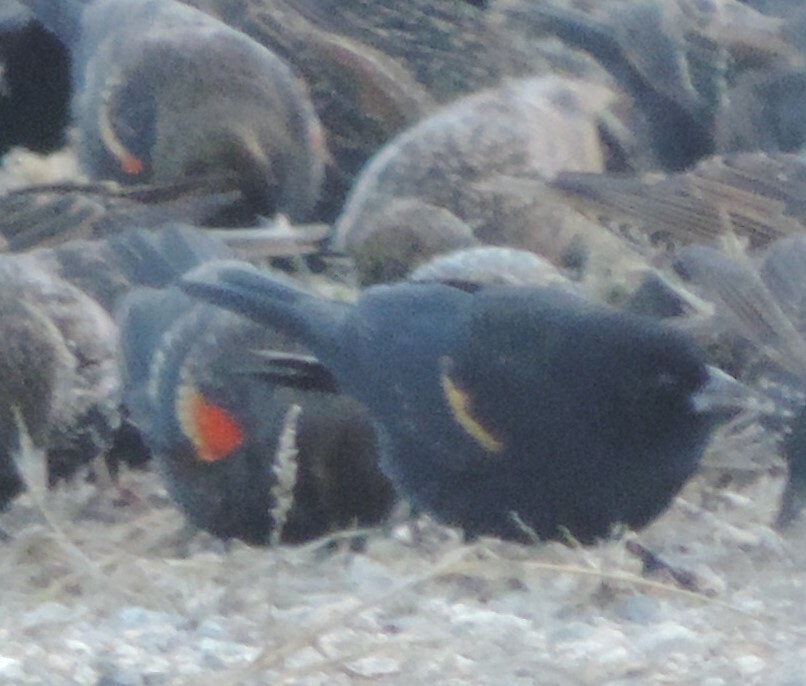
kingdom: Animalia
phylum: Chordata
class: Aves
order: Passeriformes
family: Icteridae
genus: Agelaius
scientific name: Agelaius phoeniceus
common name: Red-winged blackbird
